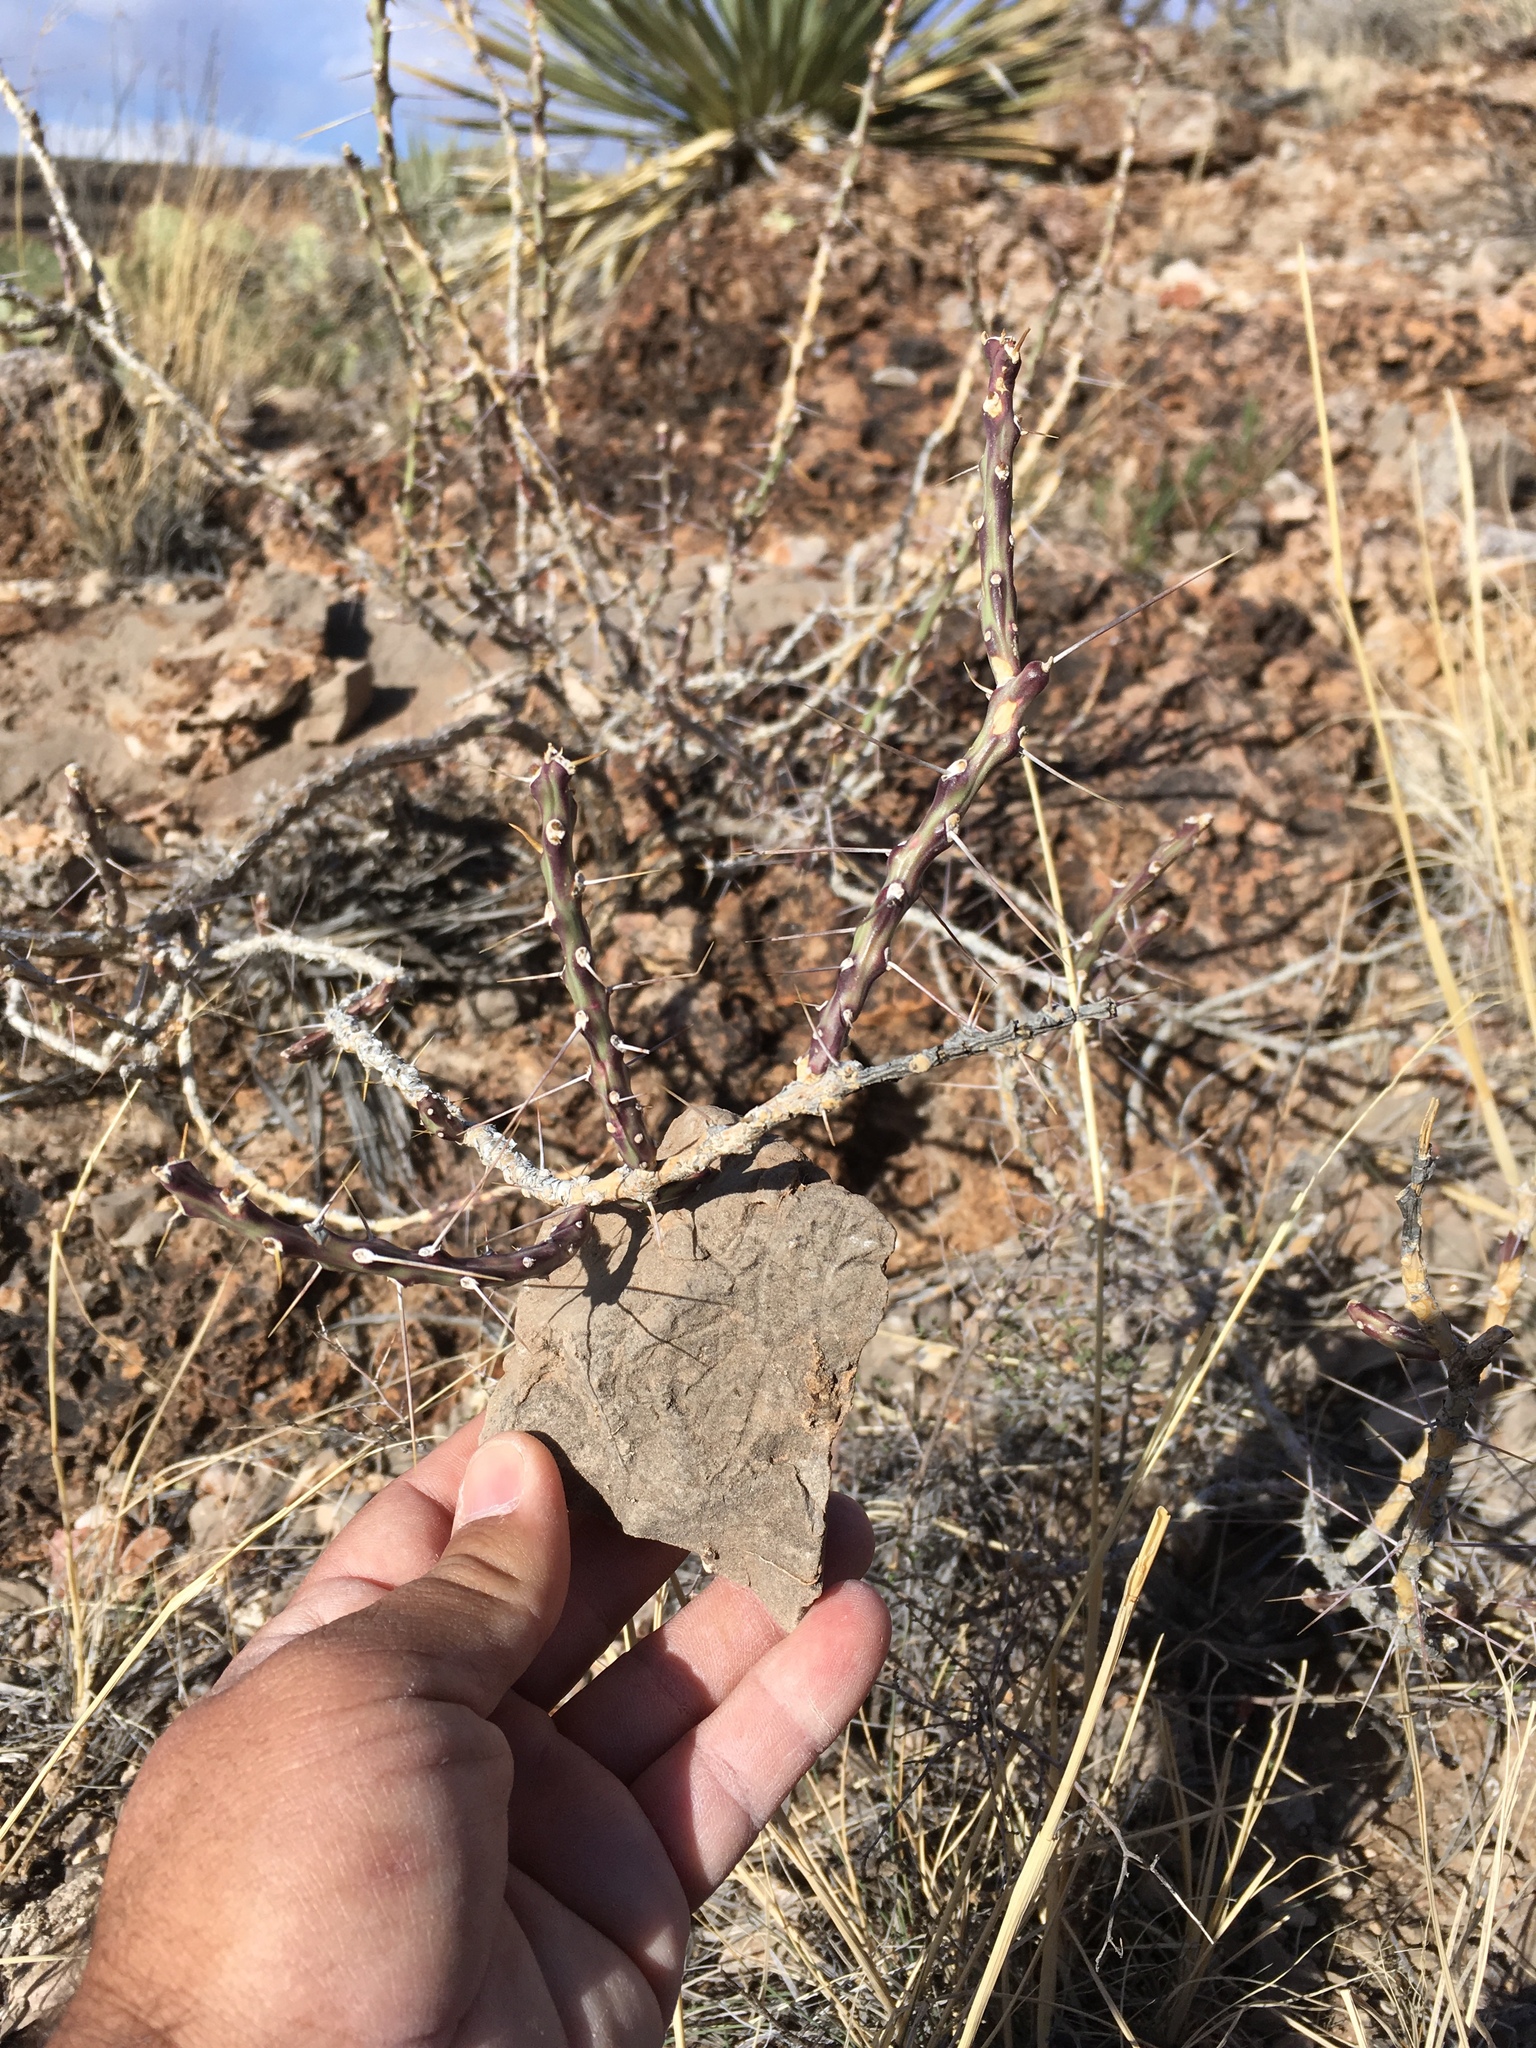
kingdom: Plantae
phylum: Tracheophyta
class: Magnoliopsida
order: Caryophyllales
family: Cactaceae
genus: Cylindropuntia
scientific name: Cylindropuntia leptocaulis
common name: Christmas cactus
